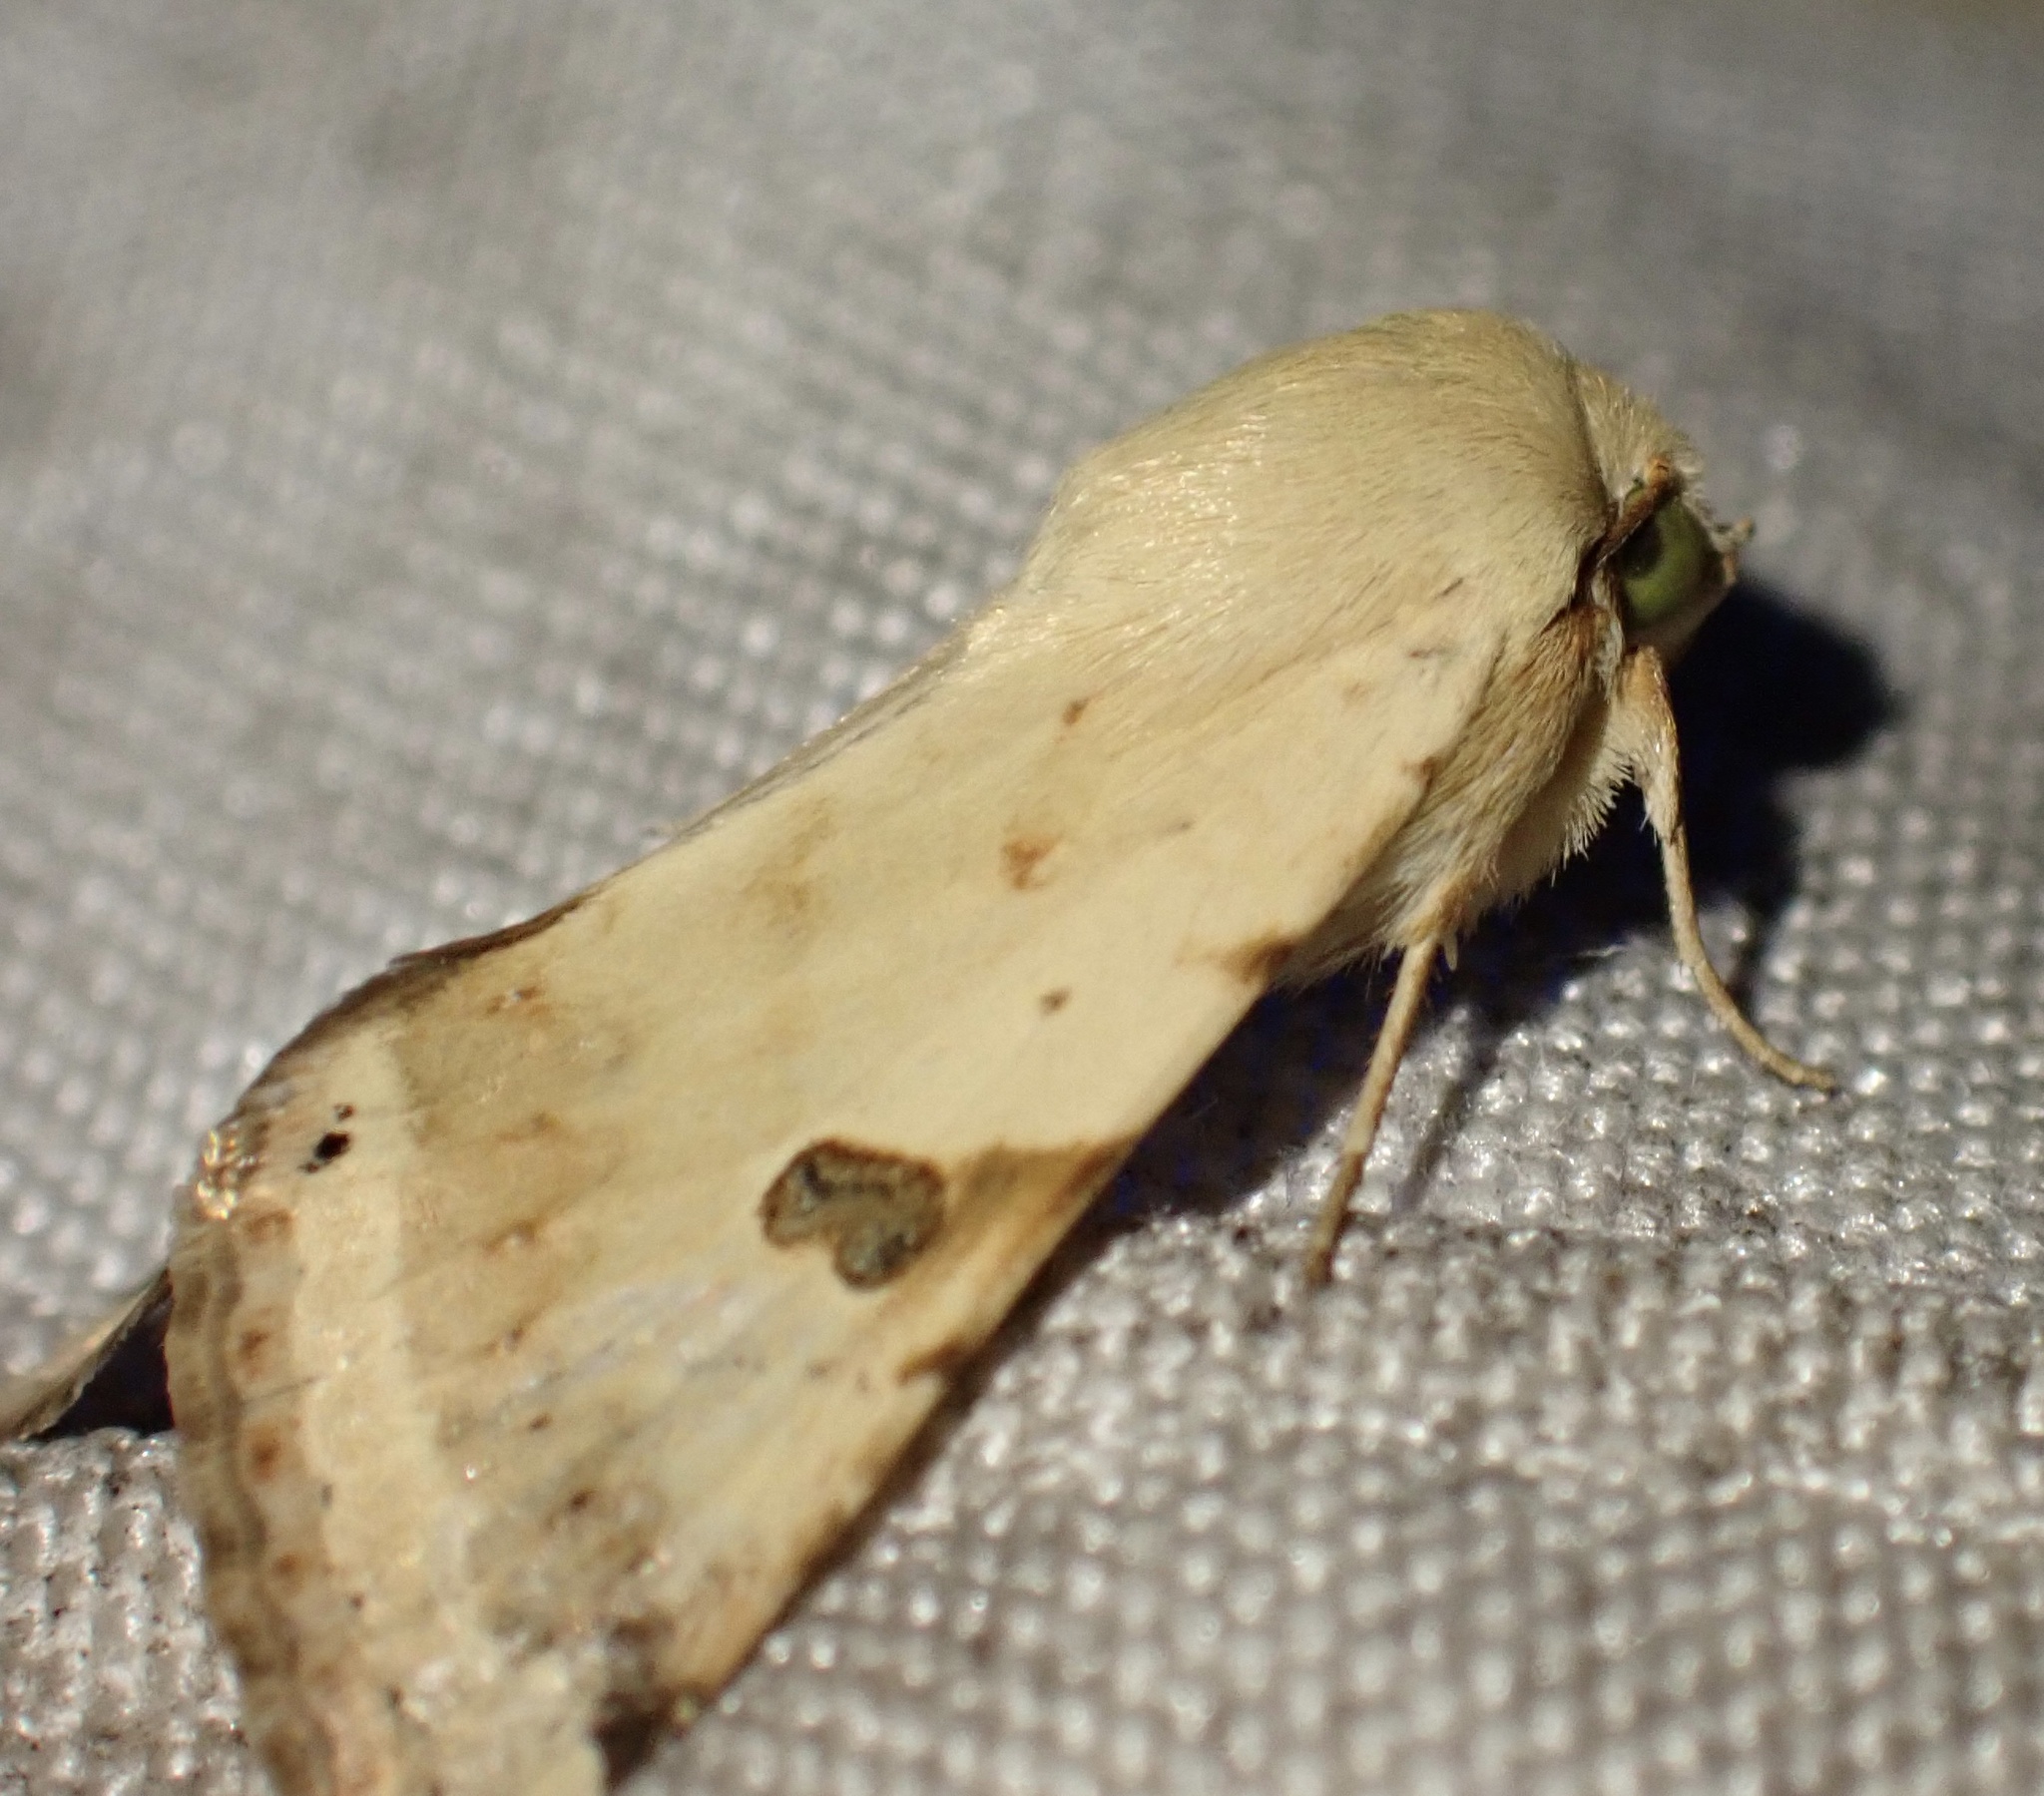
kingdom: Animalia
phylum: Arthropoda
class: Insecta
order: Lepidoptera
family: Noctuidae
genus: Heliothis
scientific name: Heliothis peltigera
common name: Bordered straw
